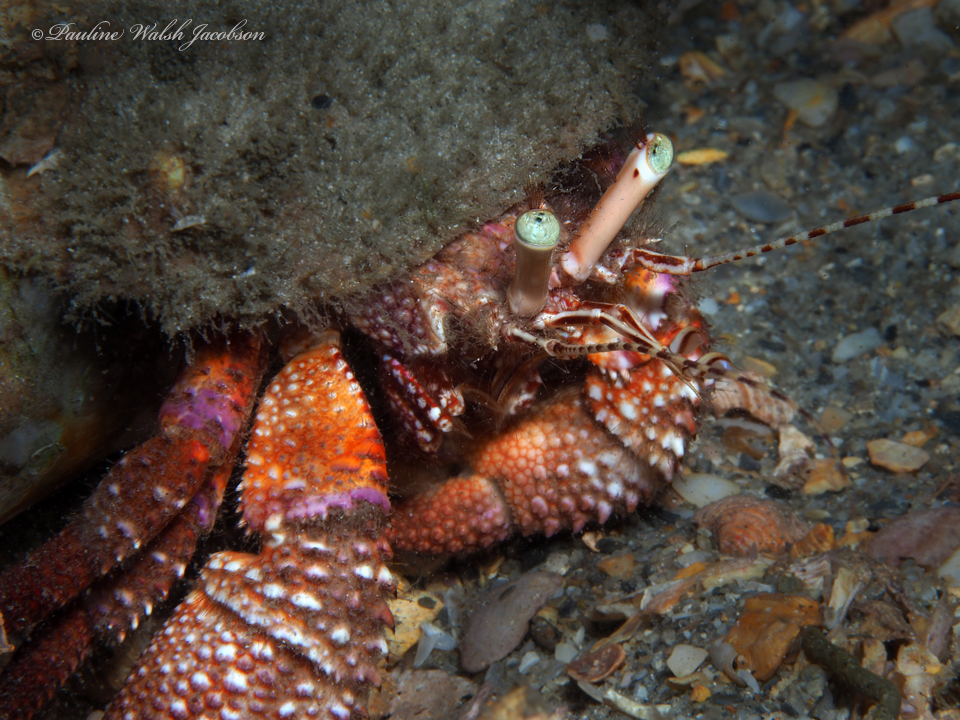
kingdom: Animalia
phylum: Arthropoda
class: Malacostraca
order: Decapoda
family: Diogenidae
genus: Petrochirus
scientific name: Petrochirus diogenes
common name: Giant hermit crab
